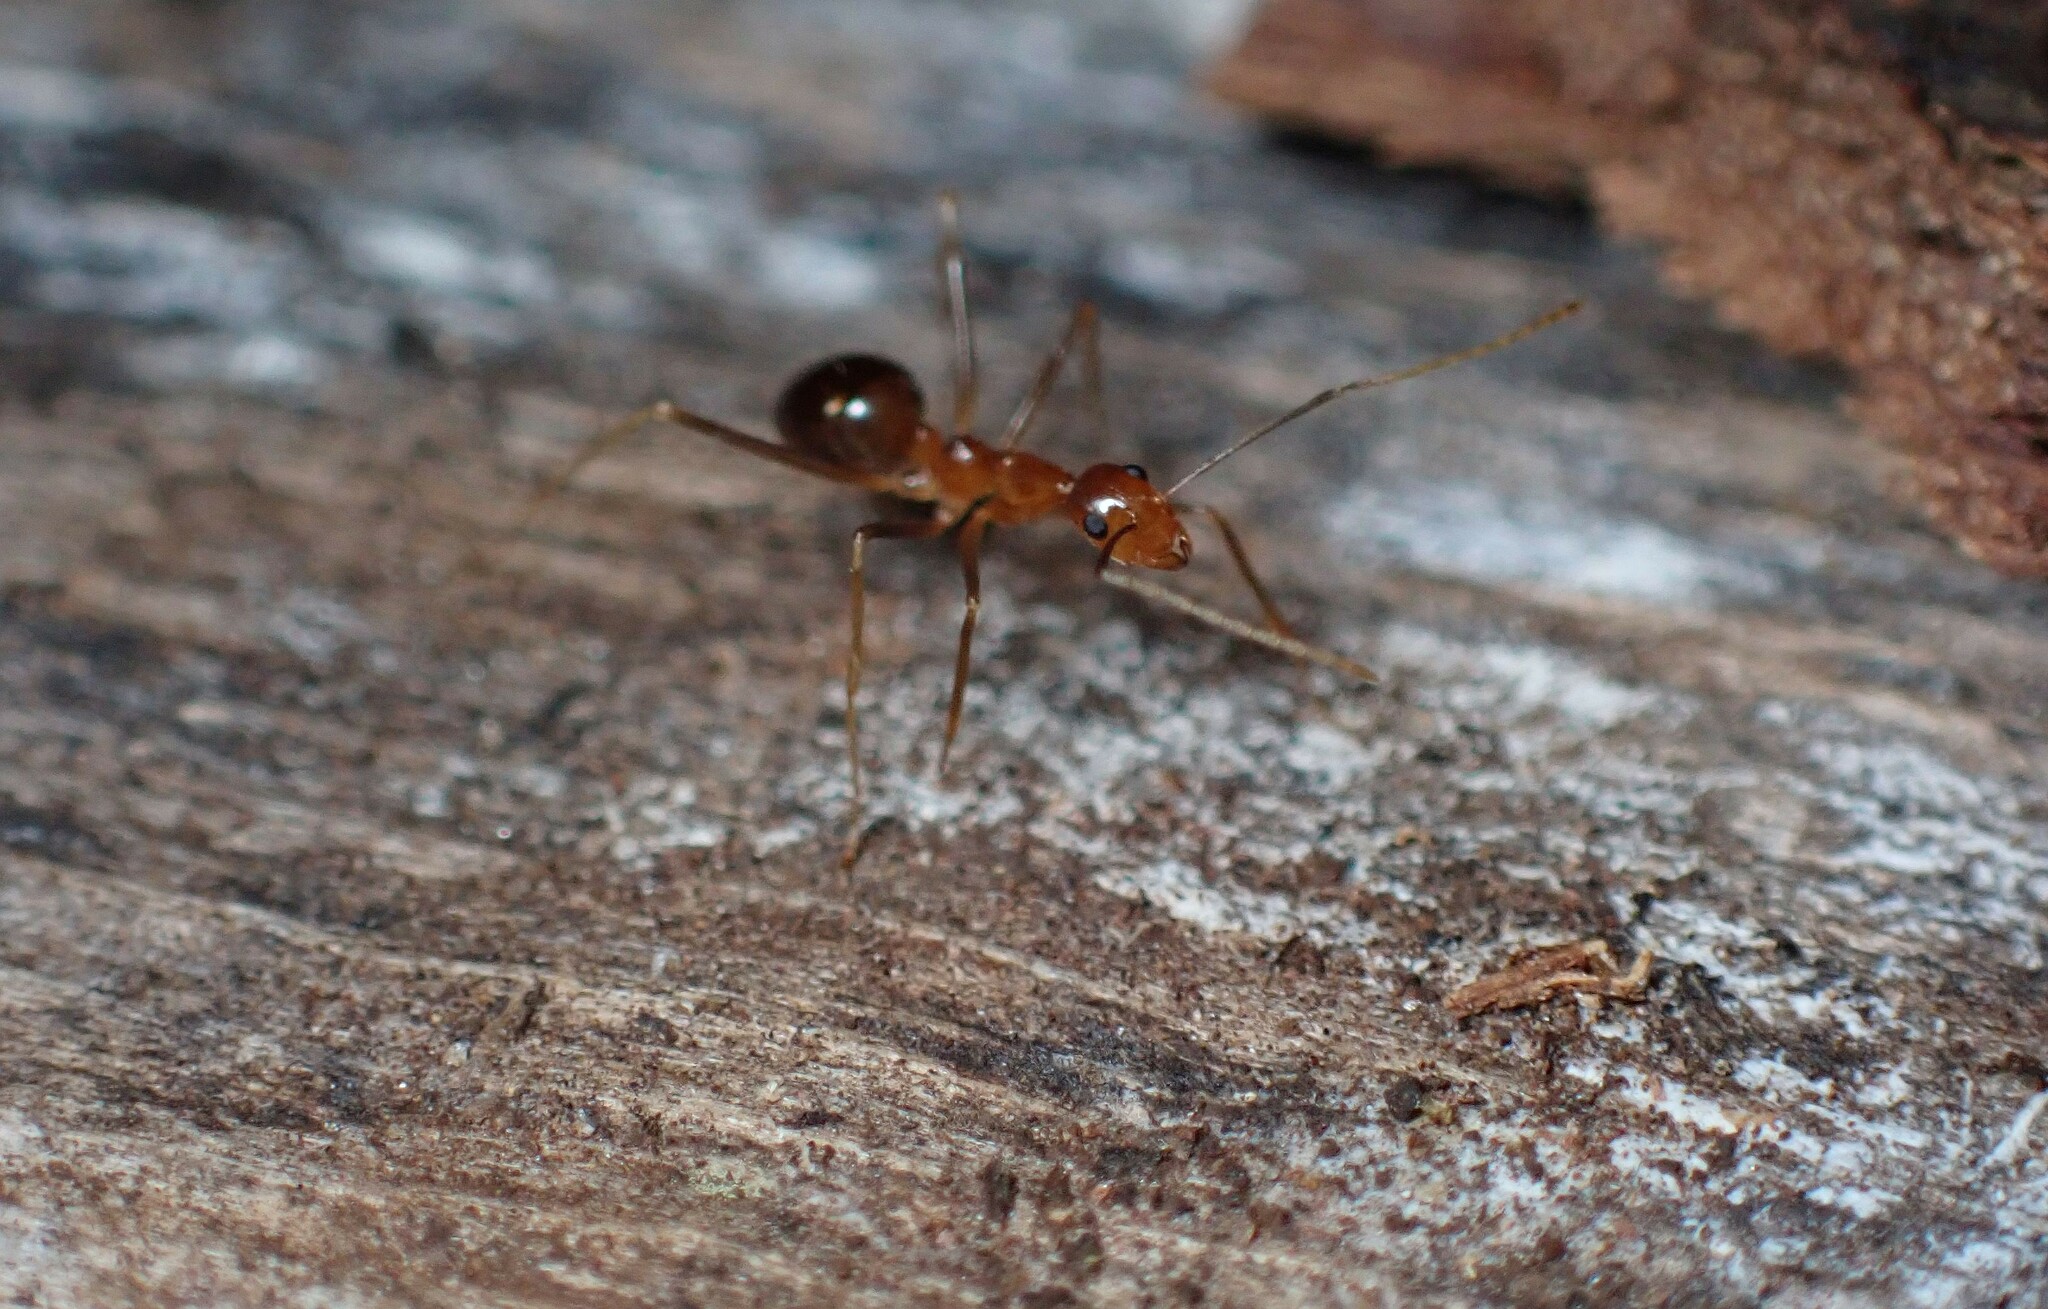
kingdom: Animalia
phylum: Arthropoda
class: Insecta
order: Hymenoptera
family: Formicidae
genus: Anoplolepis
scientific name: Anoplolepis gracilipes
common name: Ant
